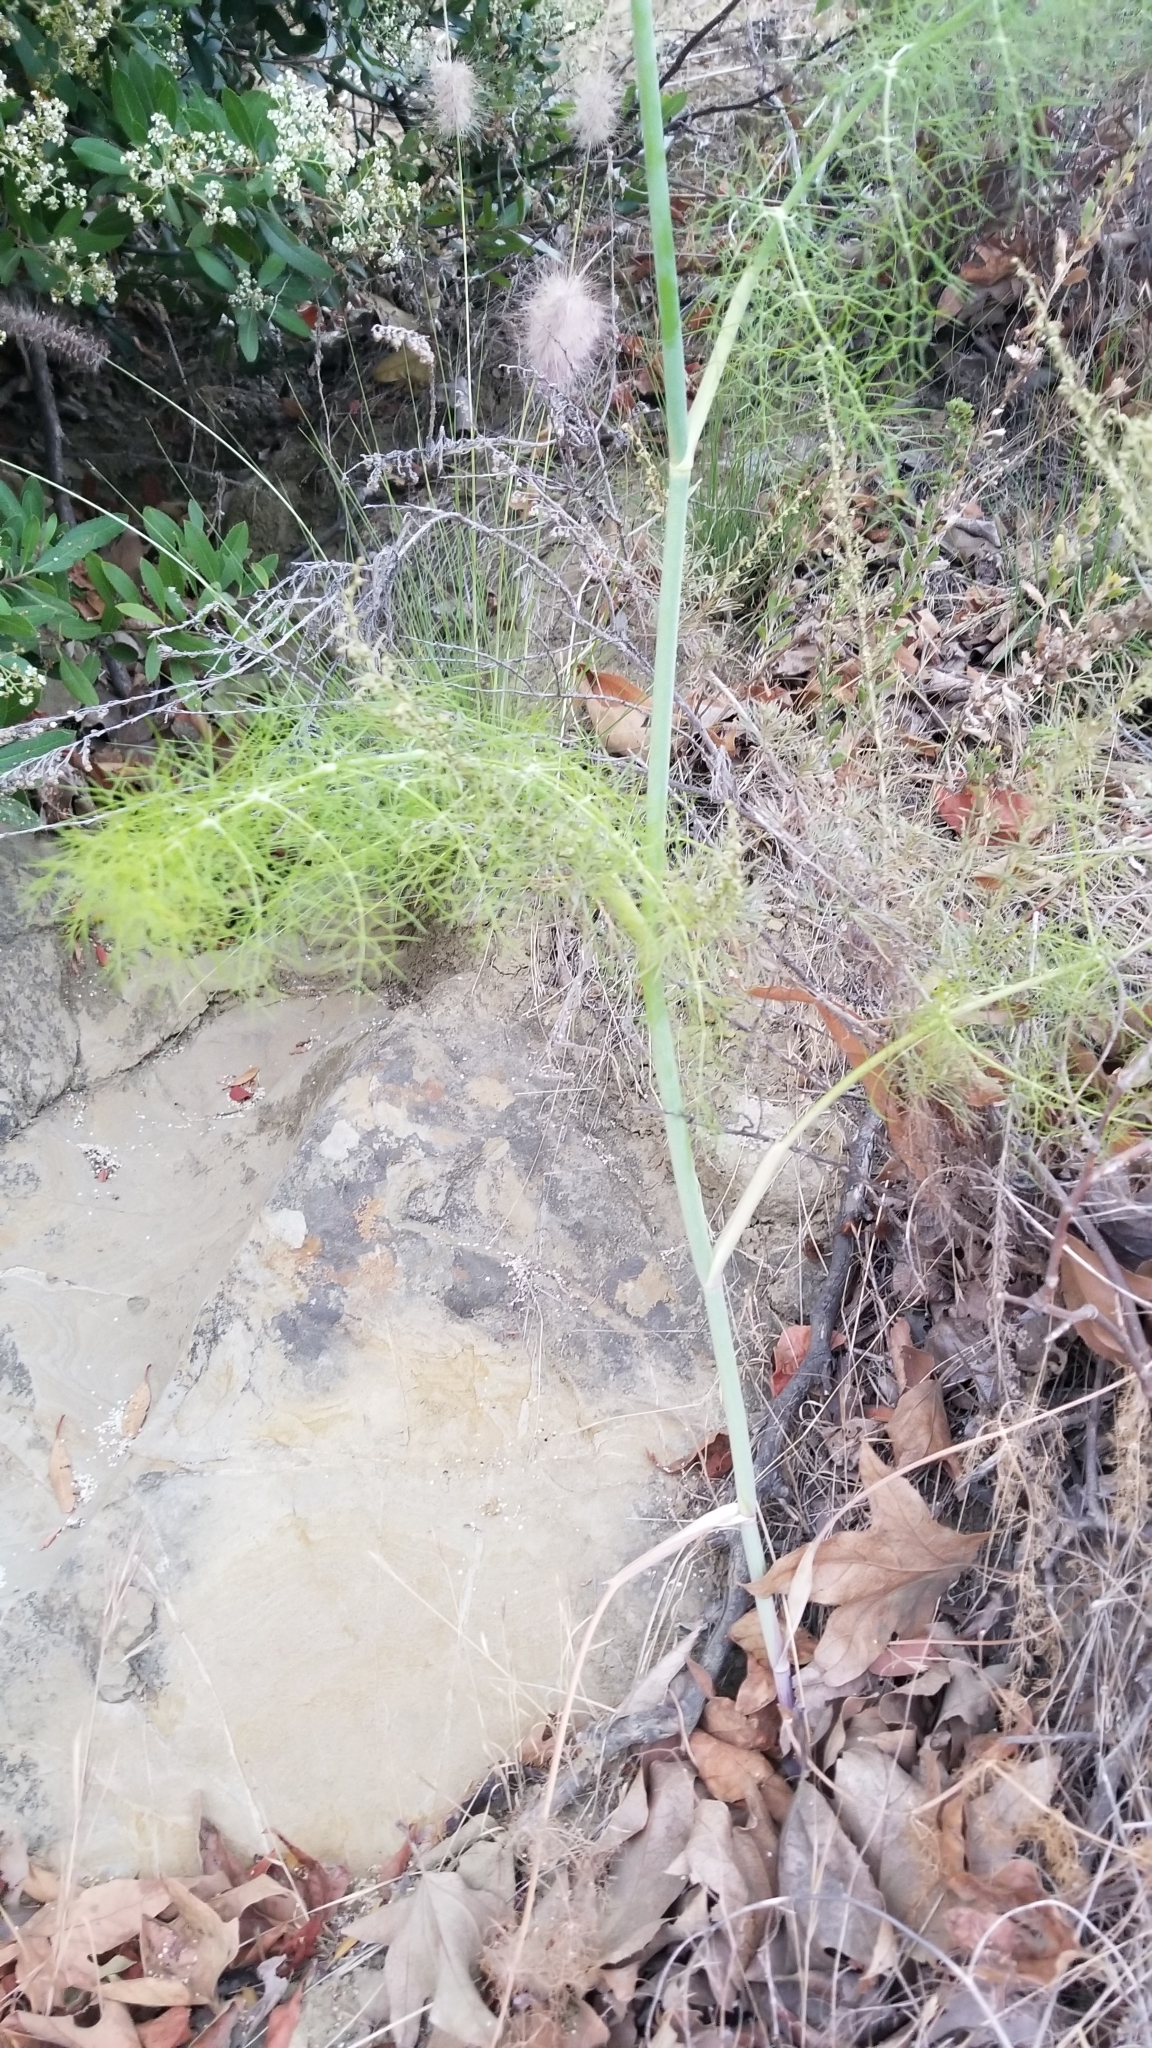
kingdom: Plantae
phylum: Tracheophyta
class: Magnoliopsida
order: Apiales
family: Apiaceae
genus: Foeniculum
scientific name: Foeniculum vulgare
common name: Fennel
